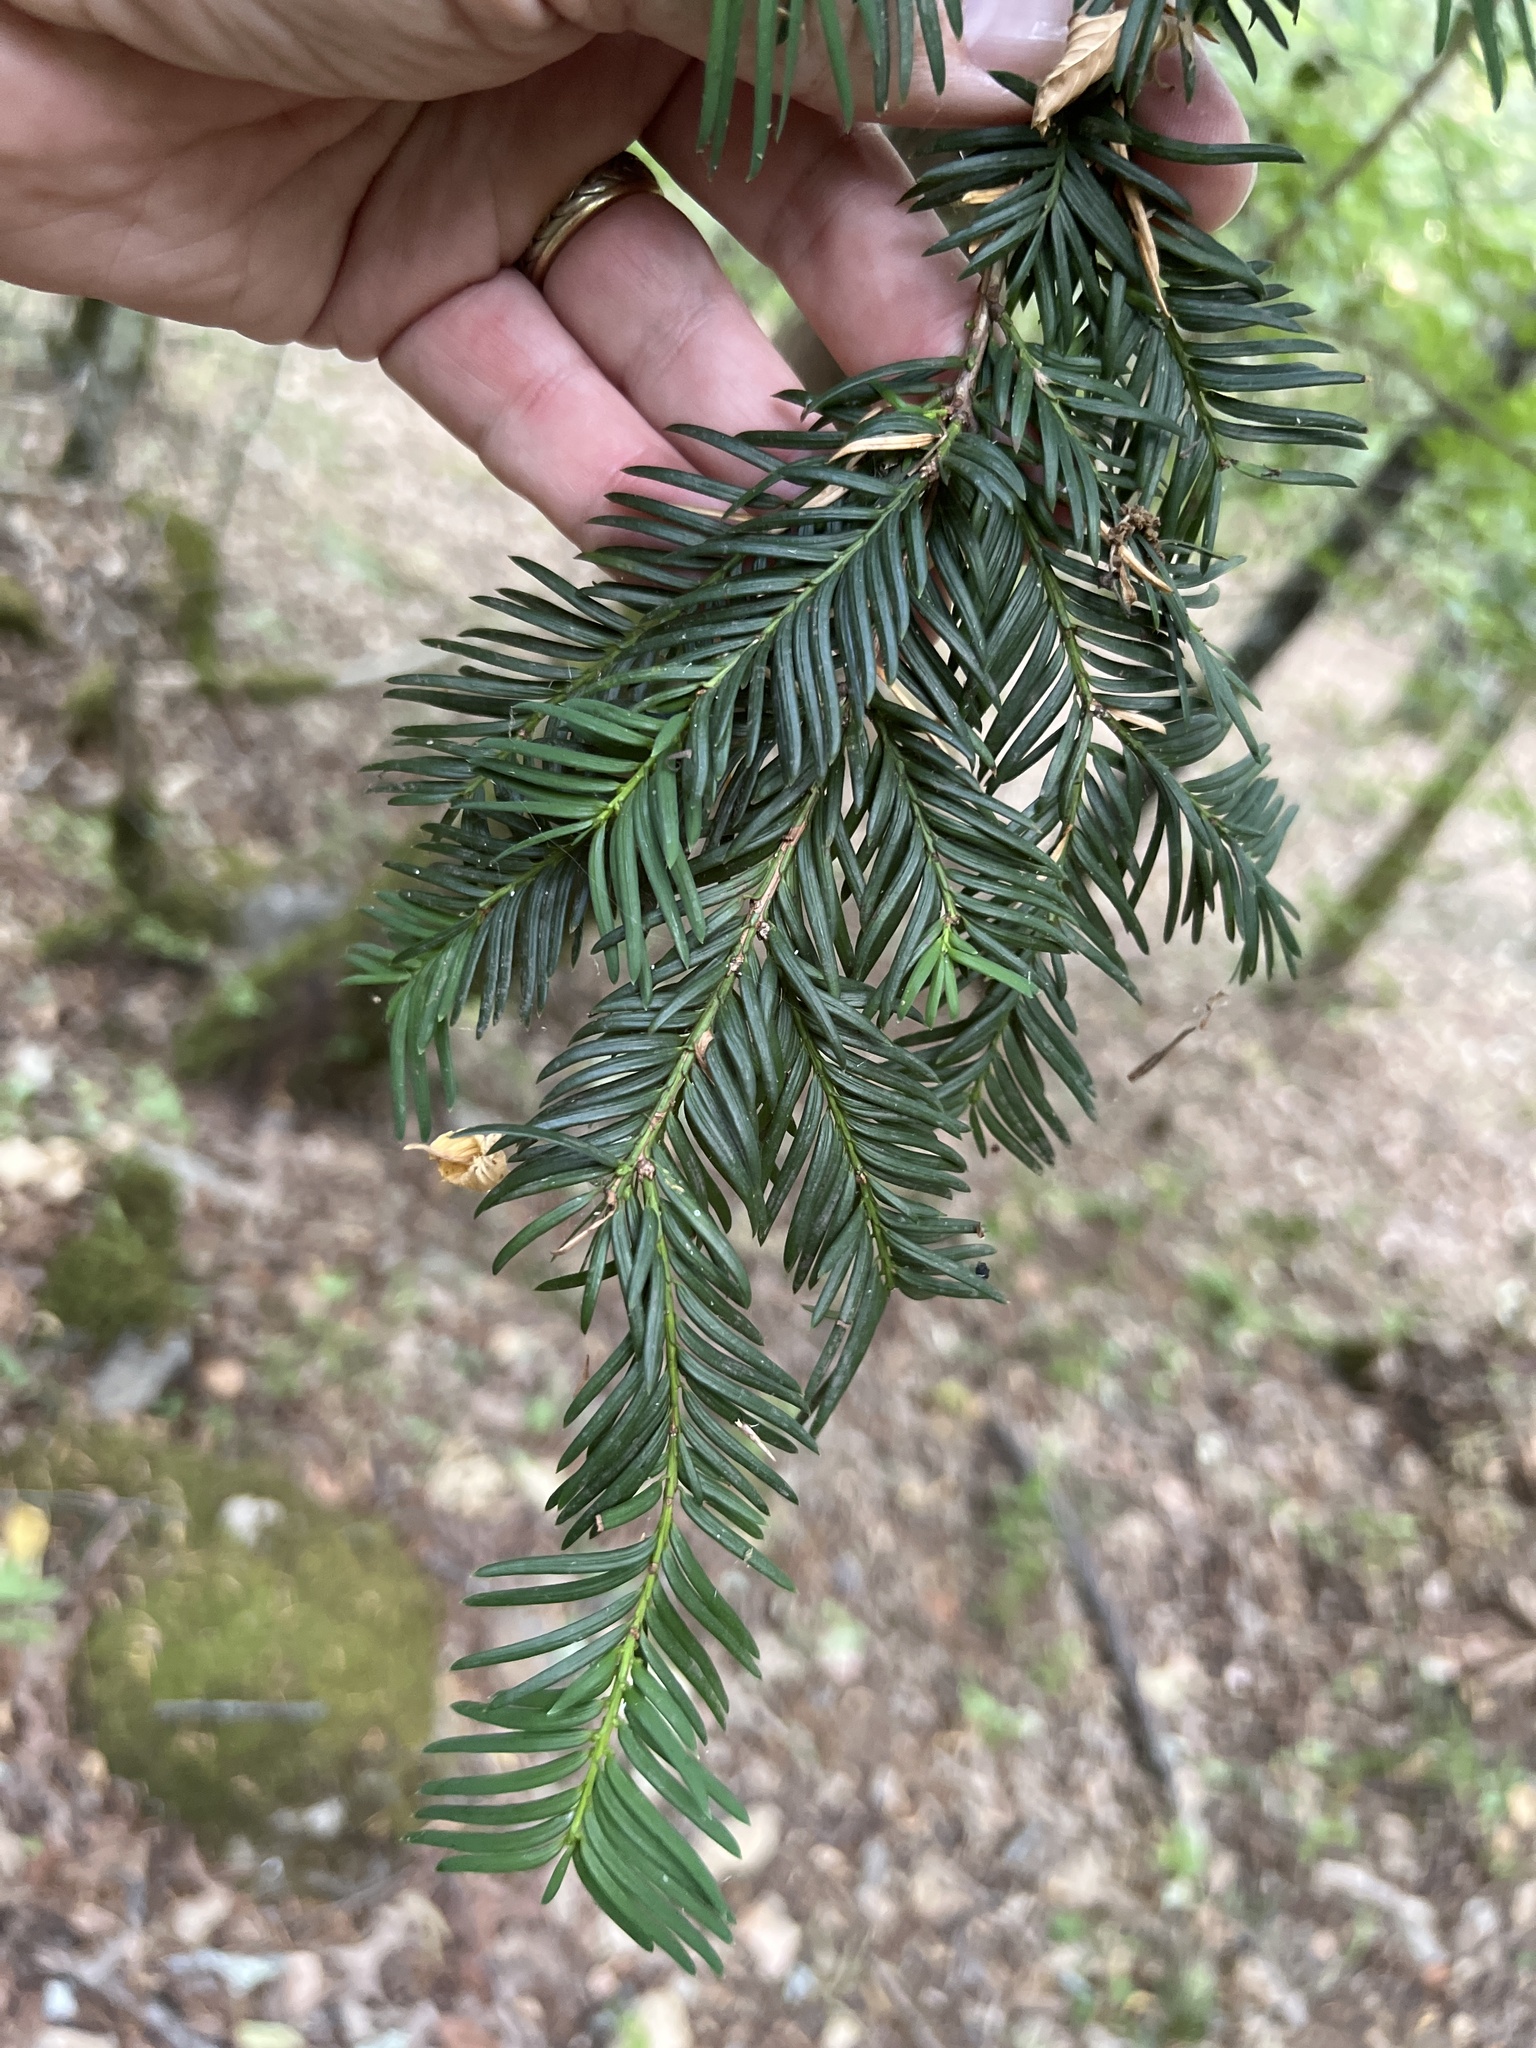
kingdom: Plantae
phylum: Tracheophyta
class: Pinopsida
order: Pinales
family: Taxaceae
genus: Taxus
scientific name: Taxus baccata
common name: Yew
